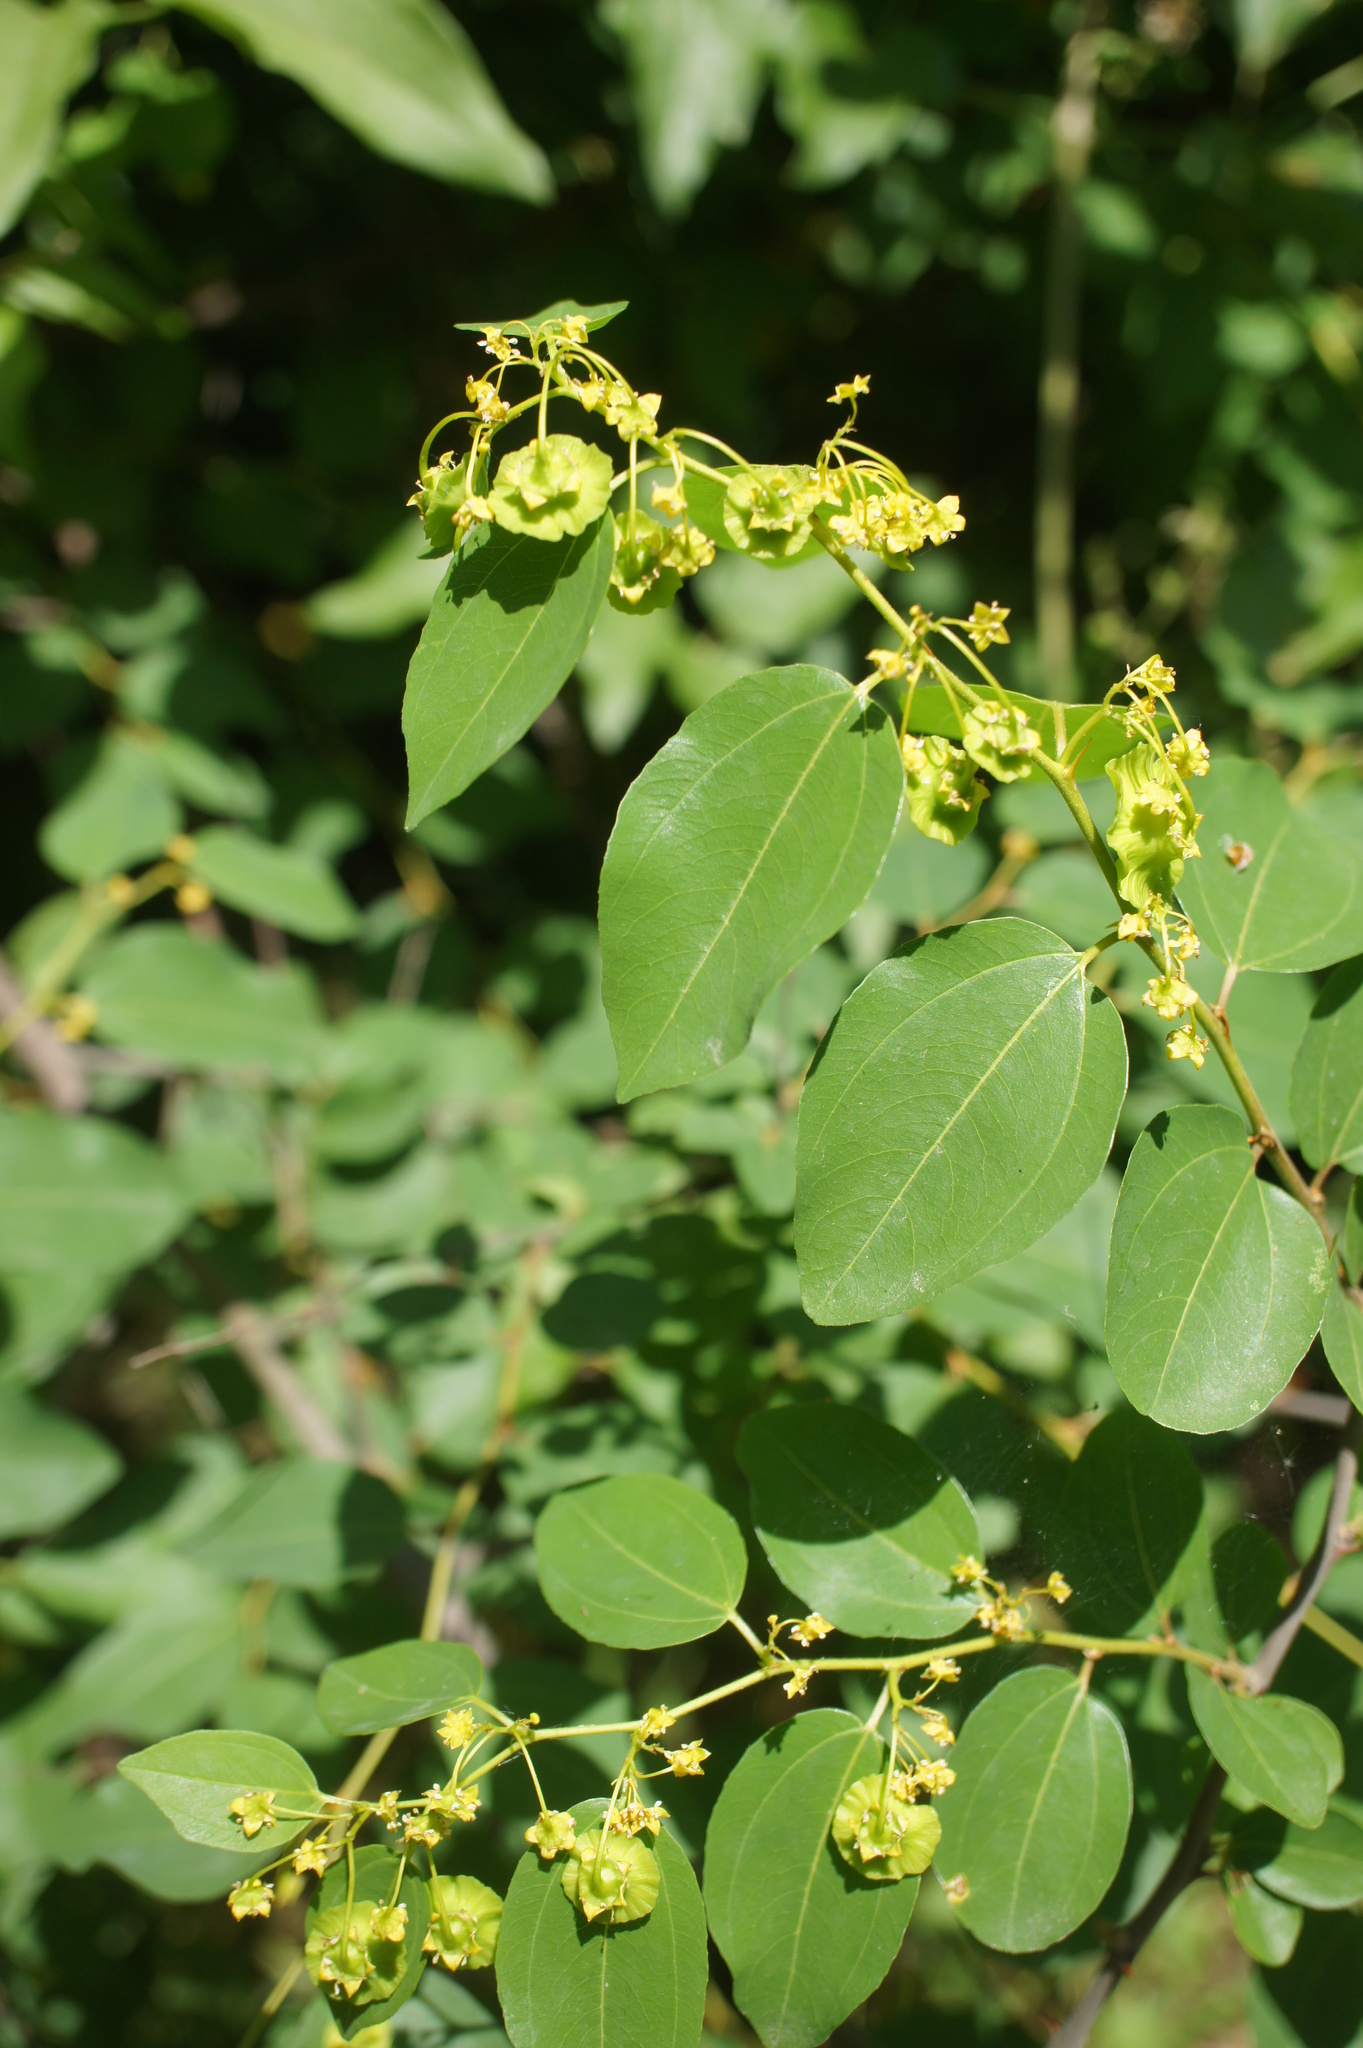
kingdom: Plantae
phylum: Tracheophyta
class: Magnoliopsida
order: Rosales
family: Rhamnaceae
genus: Paliurus
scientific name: Paliurus spina-christi
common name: Jeruselem thorn
